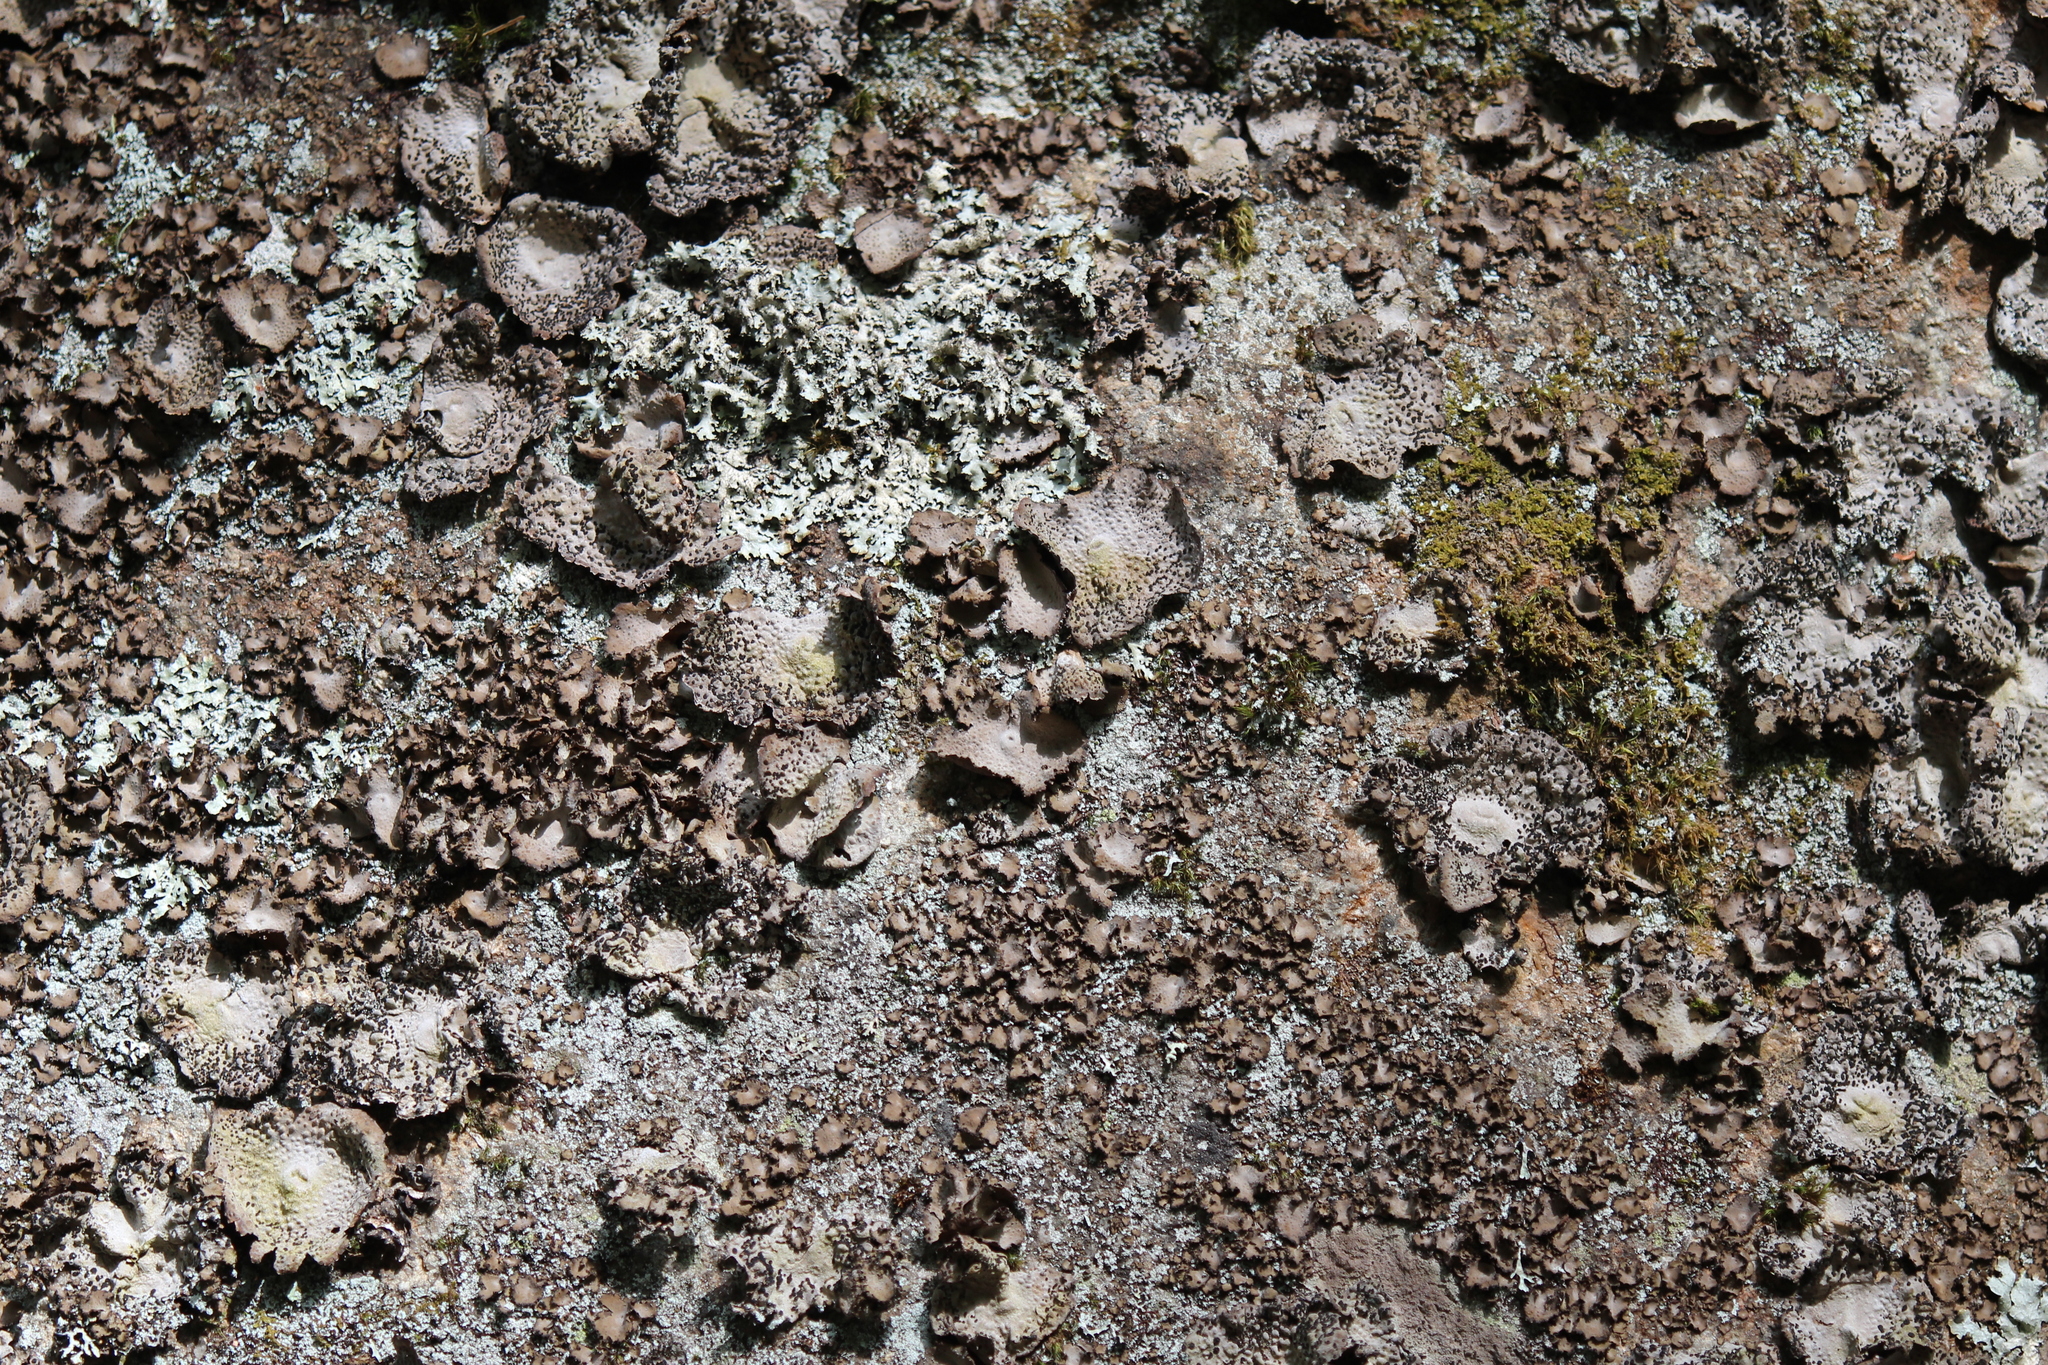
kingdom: Fungi
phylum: Ascomycota
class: Lecanoromycetes
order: Umbilicariales
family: Umbilicariaceae
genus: Lasallia
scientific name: Lasallia papulosa
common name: Common toadskin lichen
